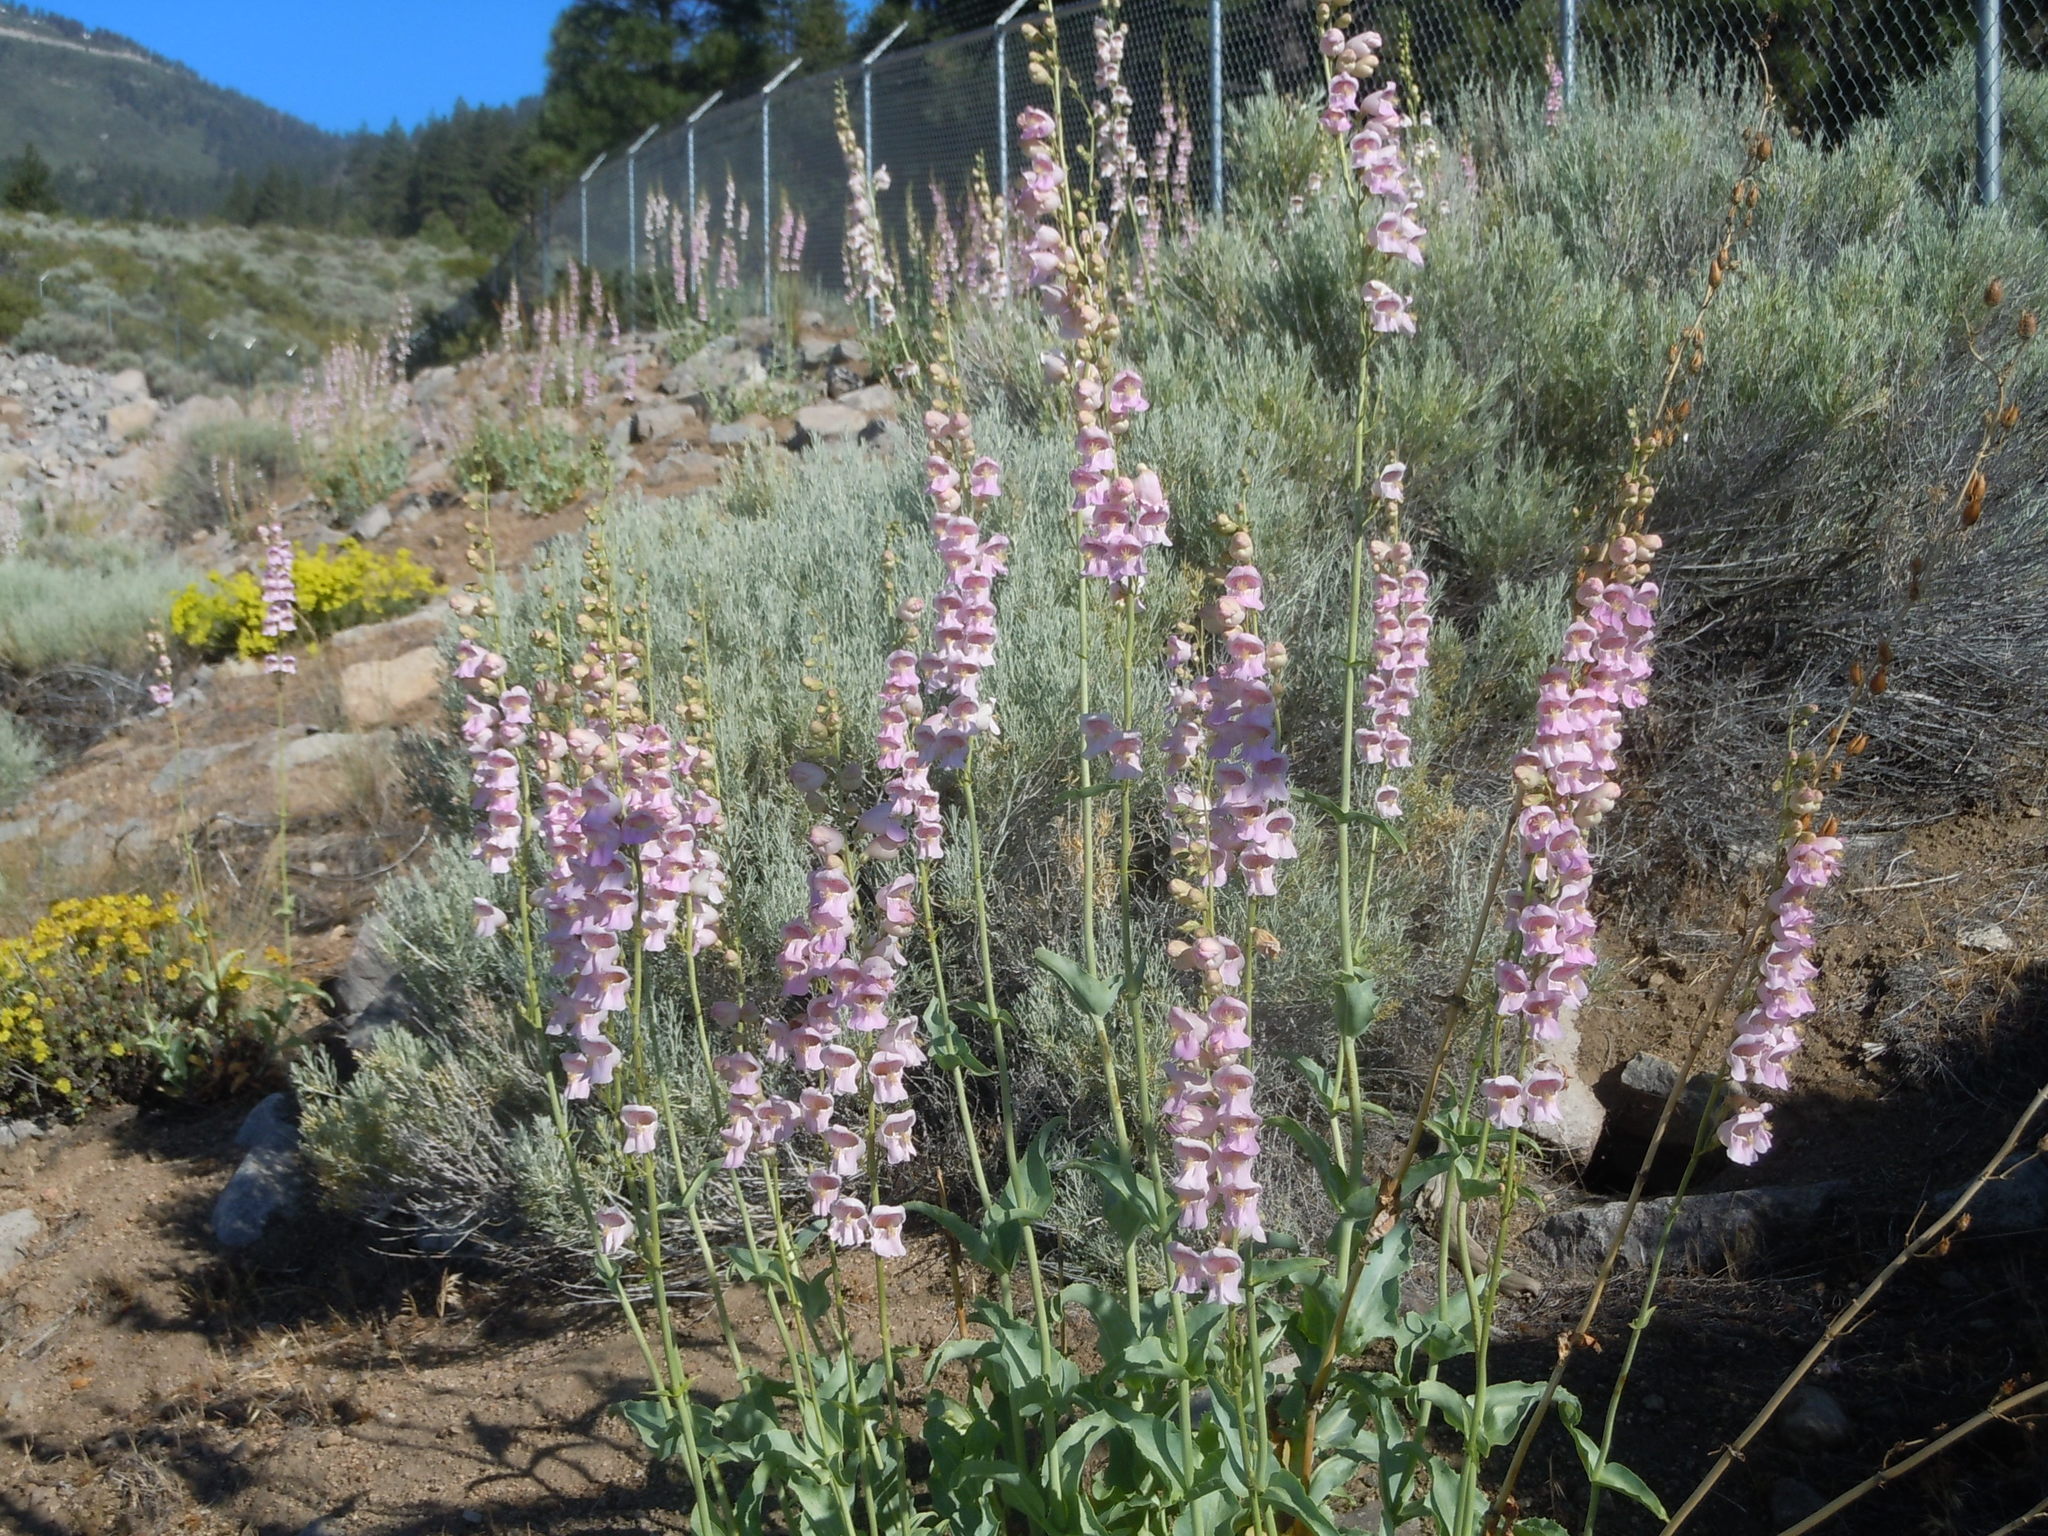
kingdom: Plantae
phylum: Tracheophyta
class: Magnoliopsida
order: Lamiales
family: Plantaginaceae
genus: Penstemon
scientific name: Penstemon palmeri
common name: Palmer penstemon
